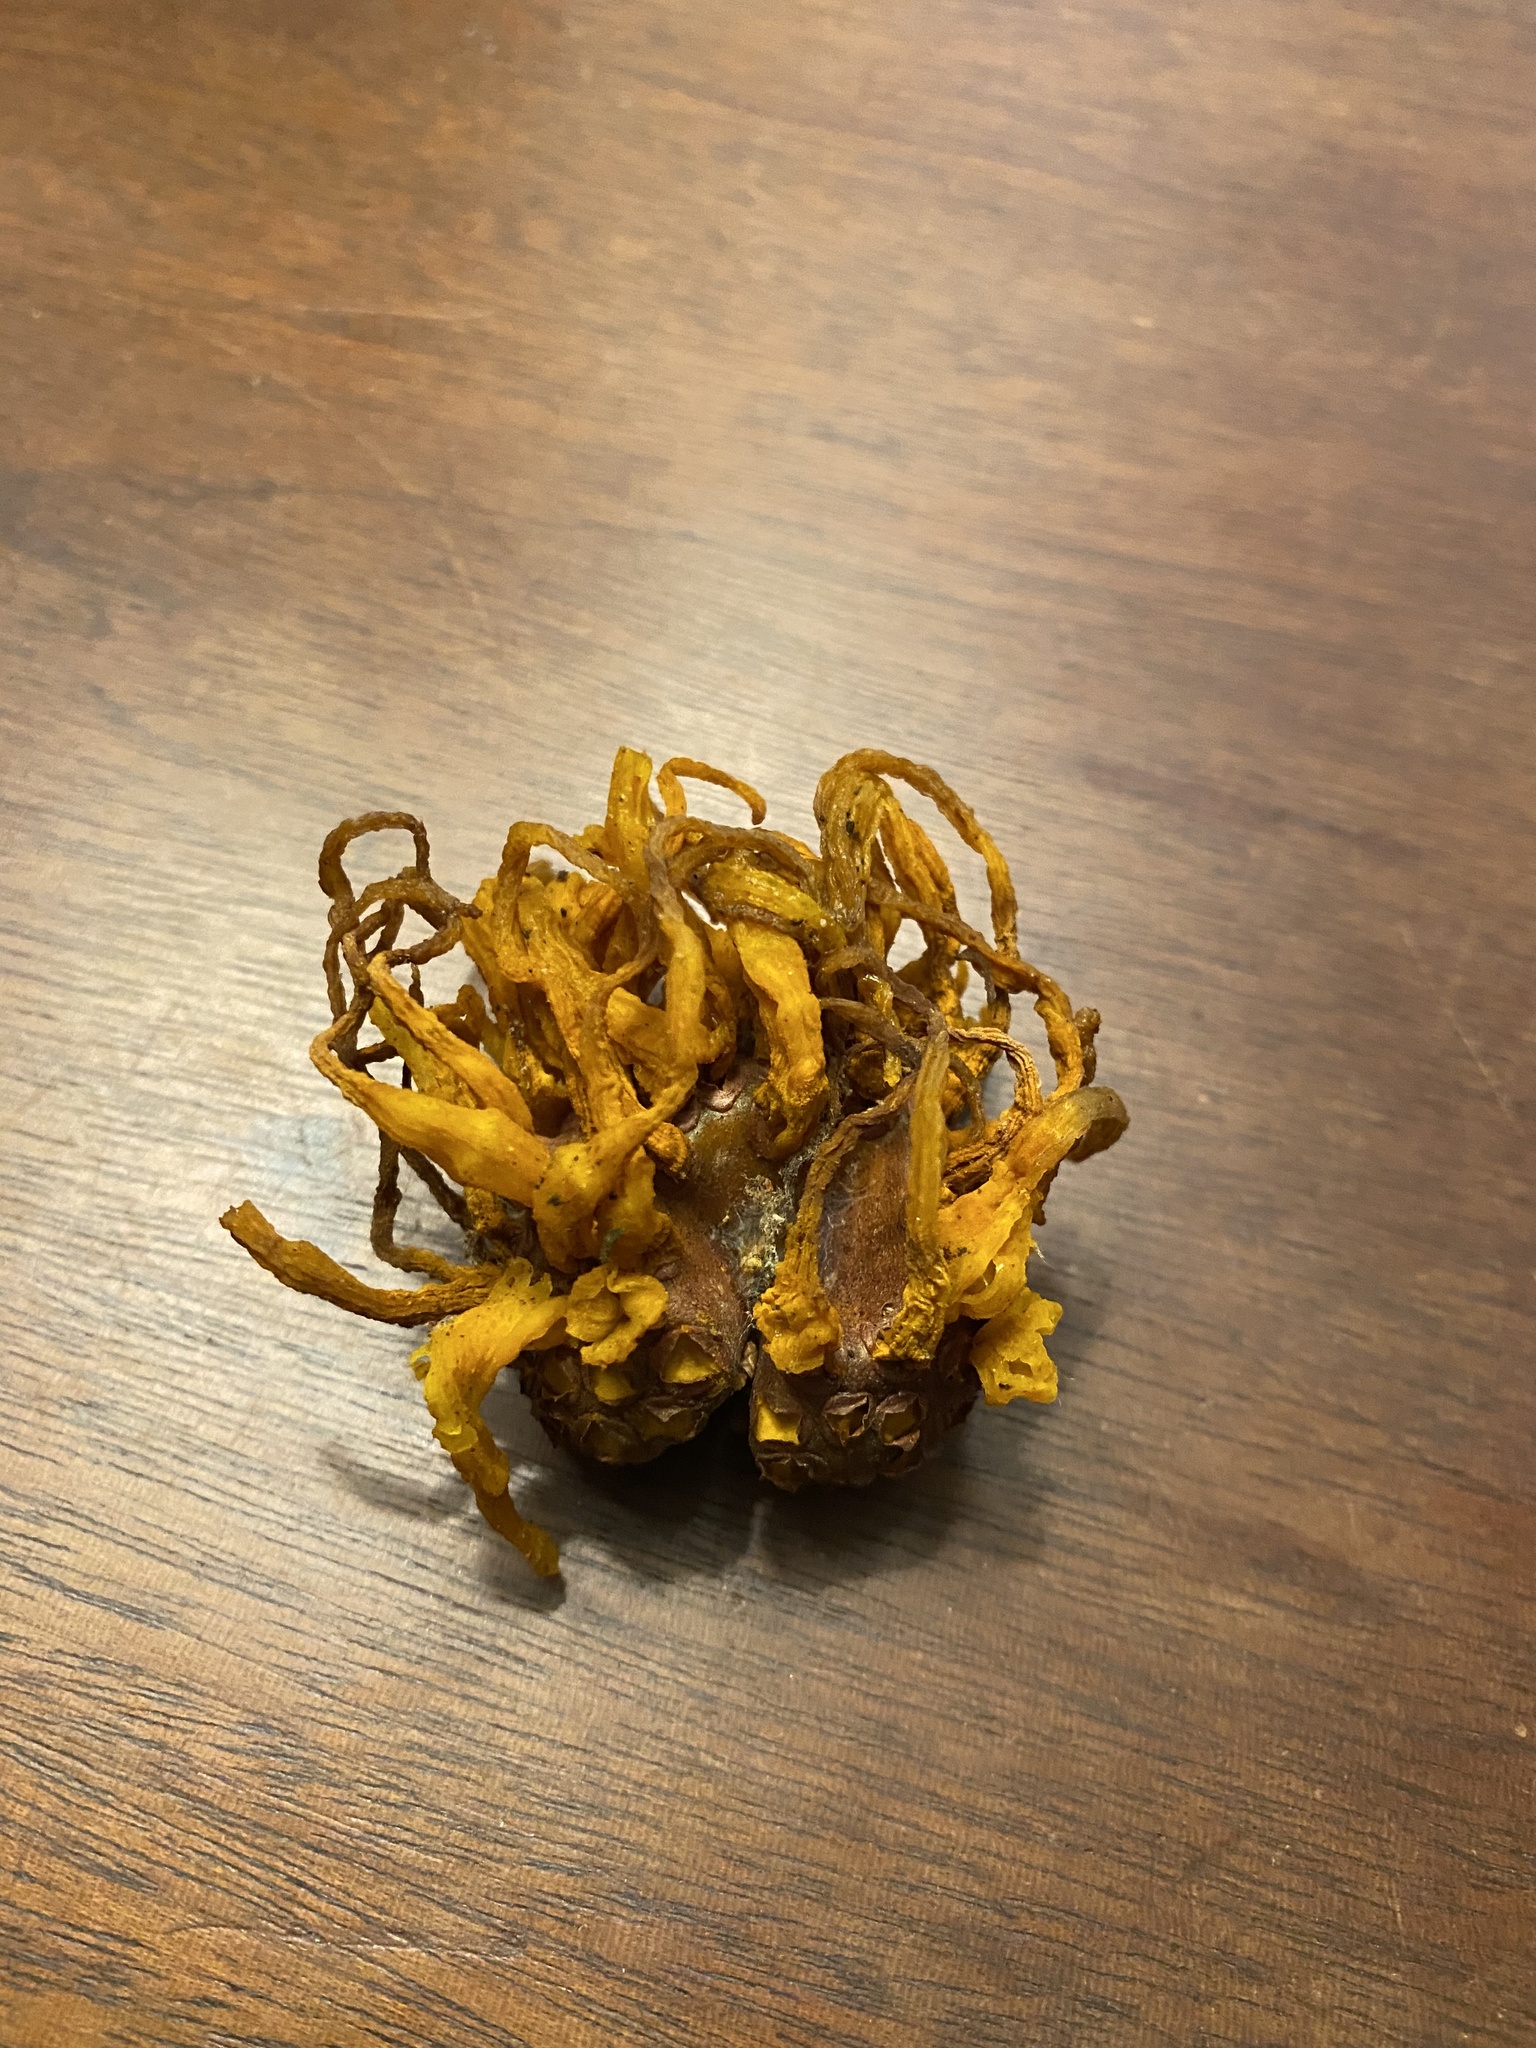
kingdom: Fungi
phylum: Basidiomycota
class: Pucciniomycetes
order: Pucciniales
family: Gymnosporangiaceae
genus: Gymnosporangium
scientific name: Gymnosporangium juniperi-virginianae
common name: Juniper-apple rust
